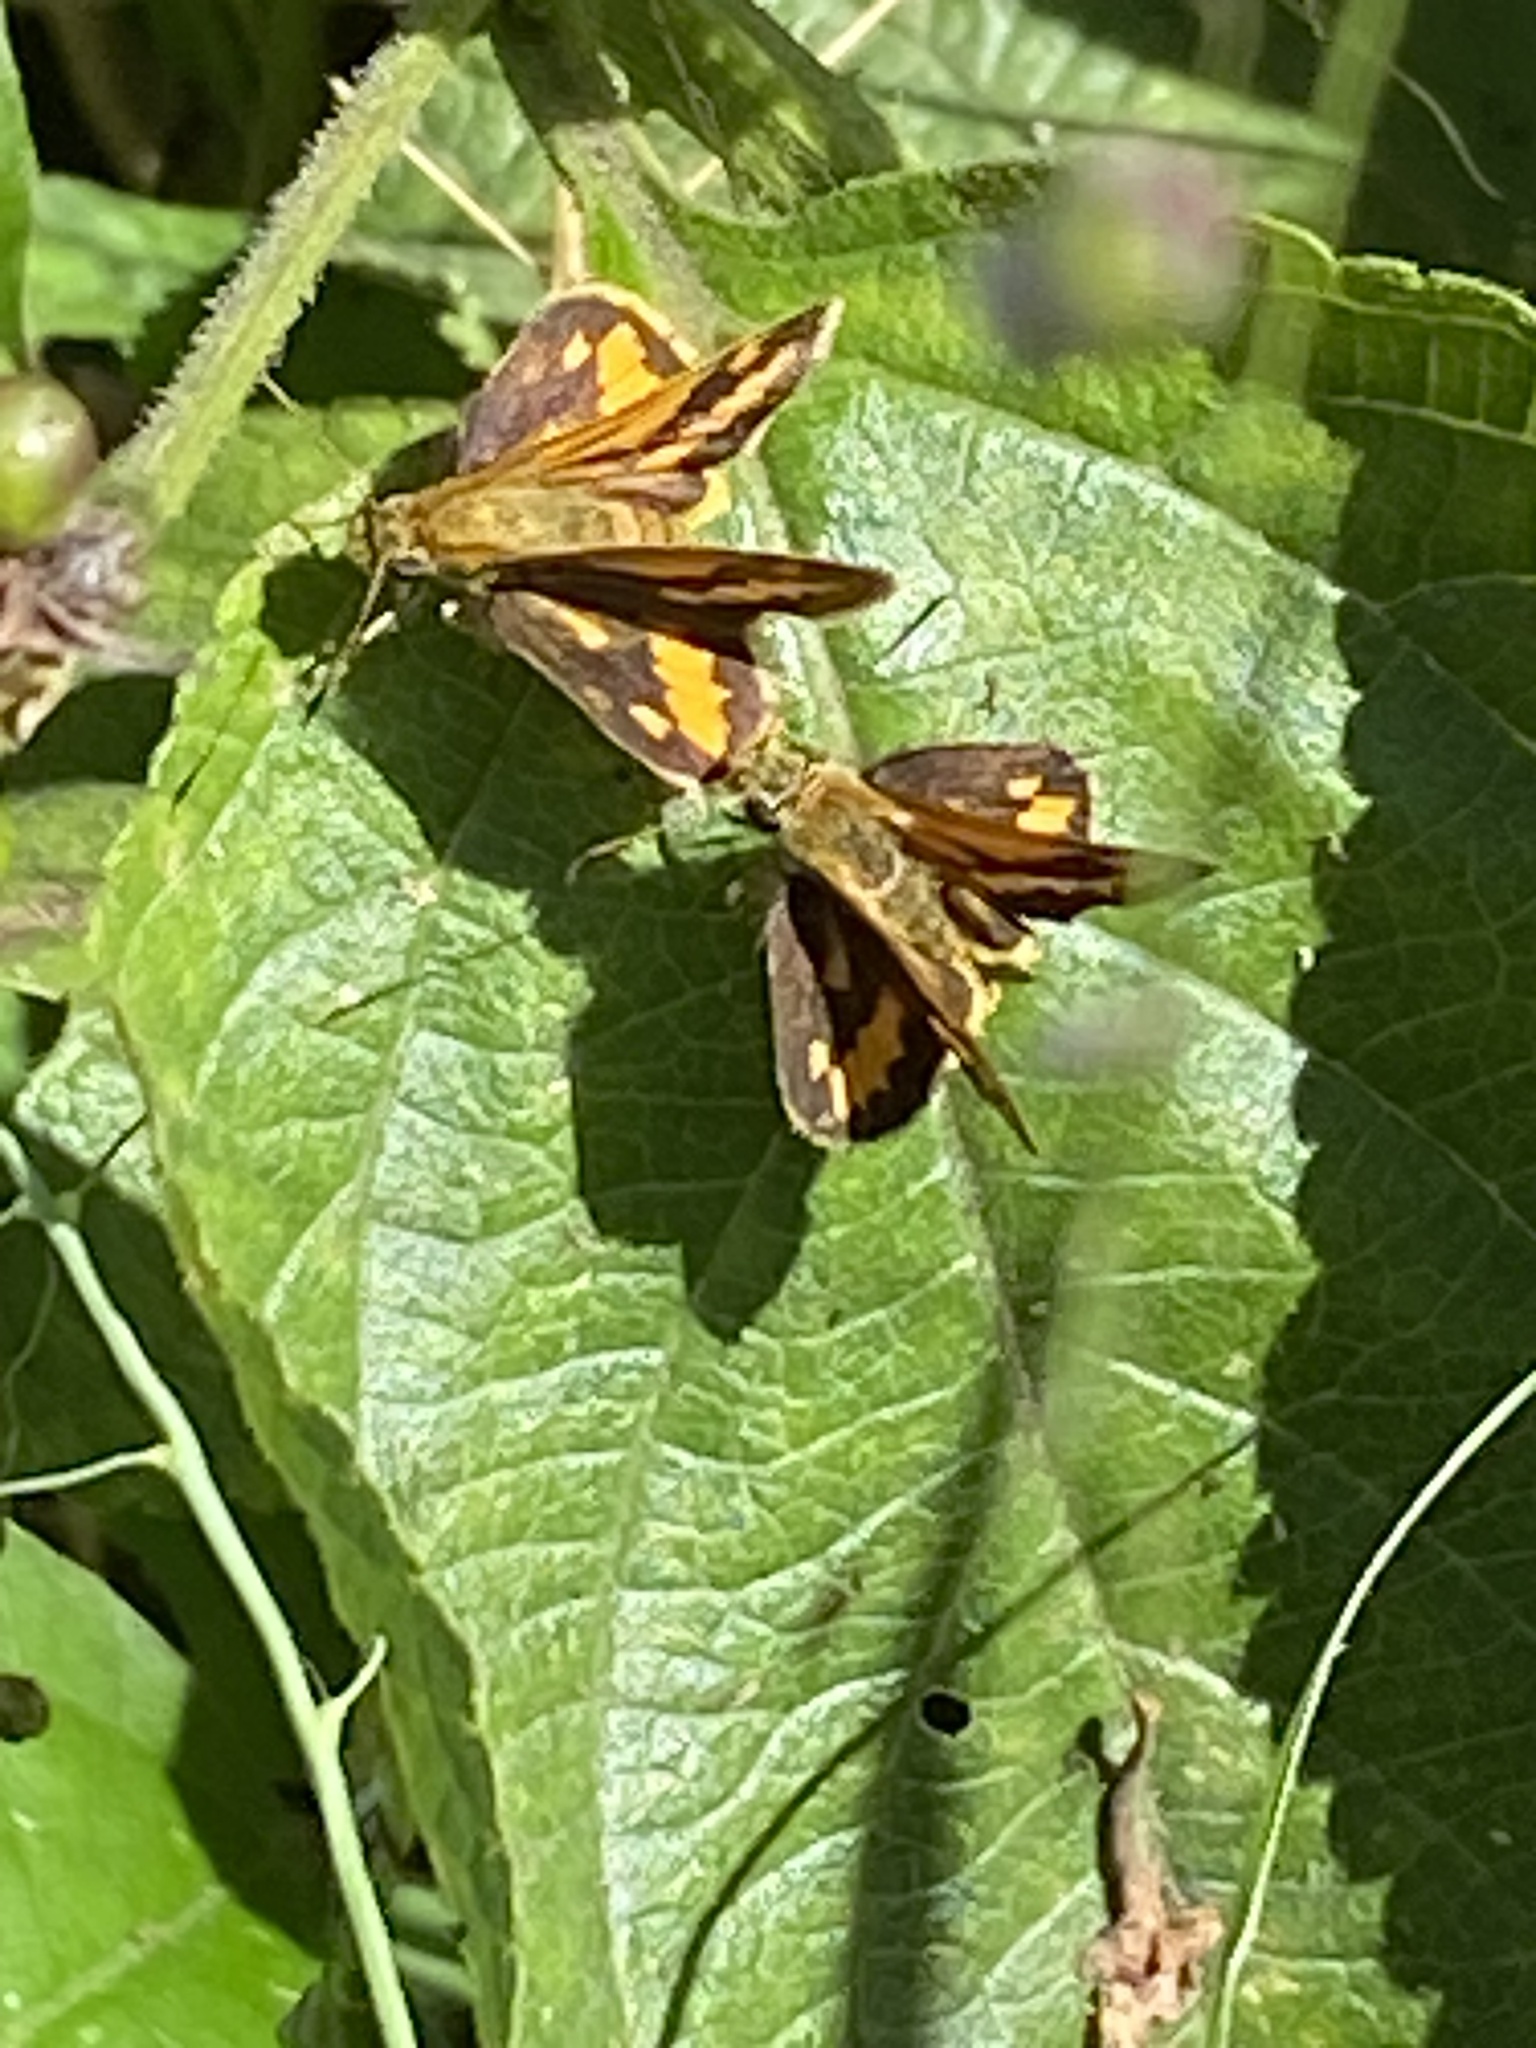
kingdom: Animalia
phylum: Arthropoda
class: Insecta
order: Lepidoptera
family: Hesperiidae
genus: Suniana
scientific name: Suniana sunias
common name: Wide-brand grass-dart
